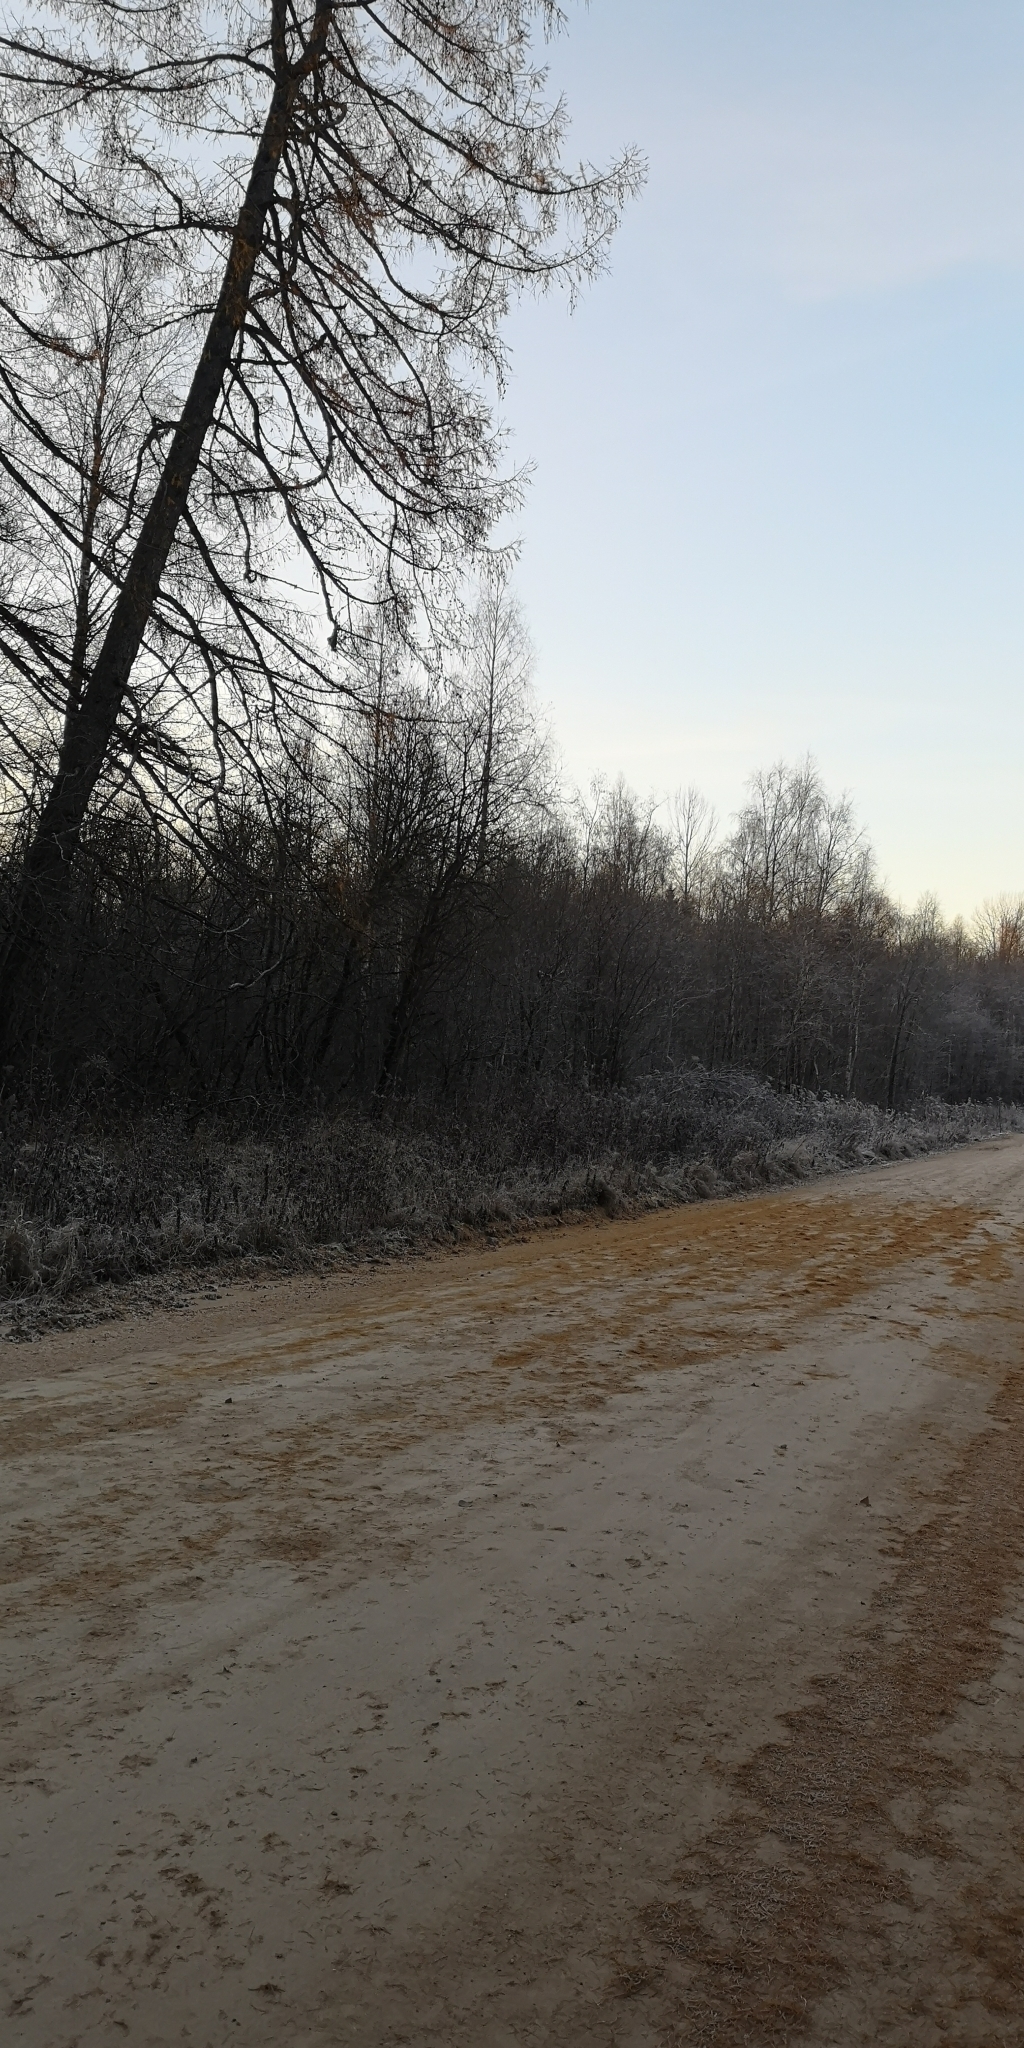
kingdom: Plantae
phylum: Tracheophyta
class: Pinopsida
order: Pinales
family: Pinaceae
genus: Larix
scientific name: Larix sibirica
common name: Siberian larch
